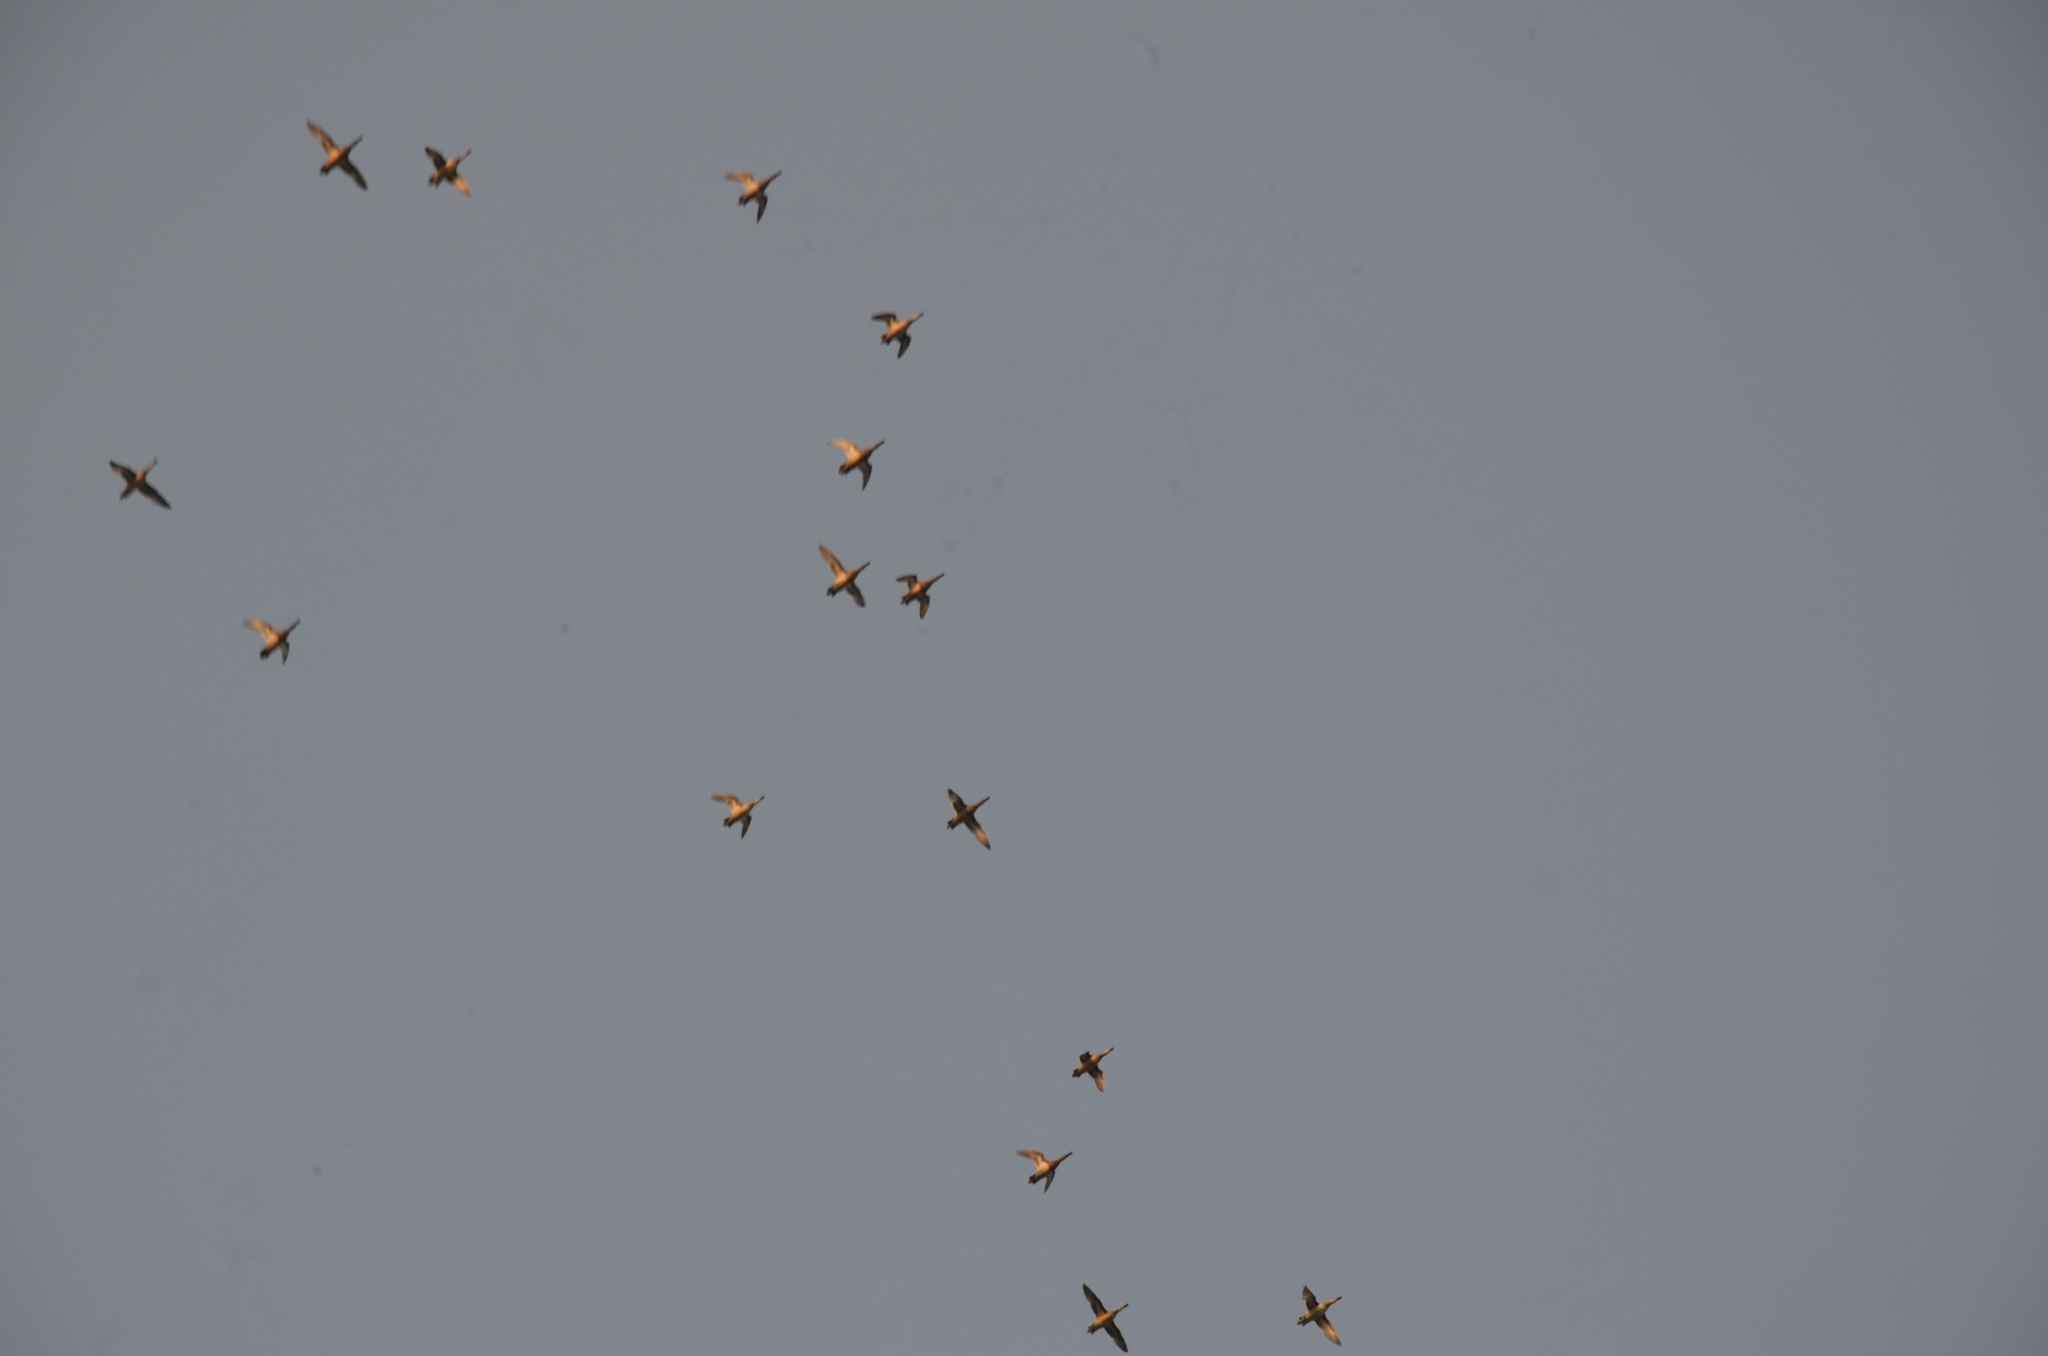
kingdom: Animalia
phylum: Chordata
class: Aves
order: Anseriformes
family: Anatidae
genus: Spatula
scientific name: Spatula querquedula
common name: Garganey
